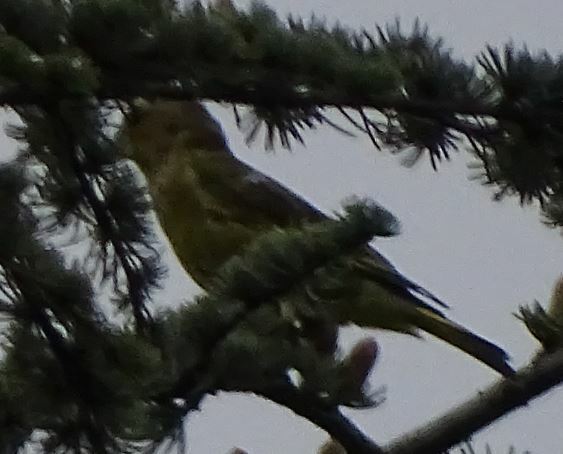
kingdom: Plantae
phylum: Tracheophyta
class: Liliopsida
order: Poales
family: Poaceae
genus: Chloris
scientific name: Chloris chloris
